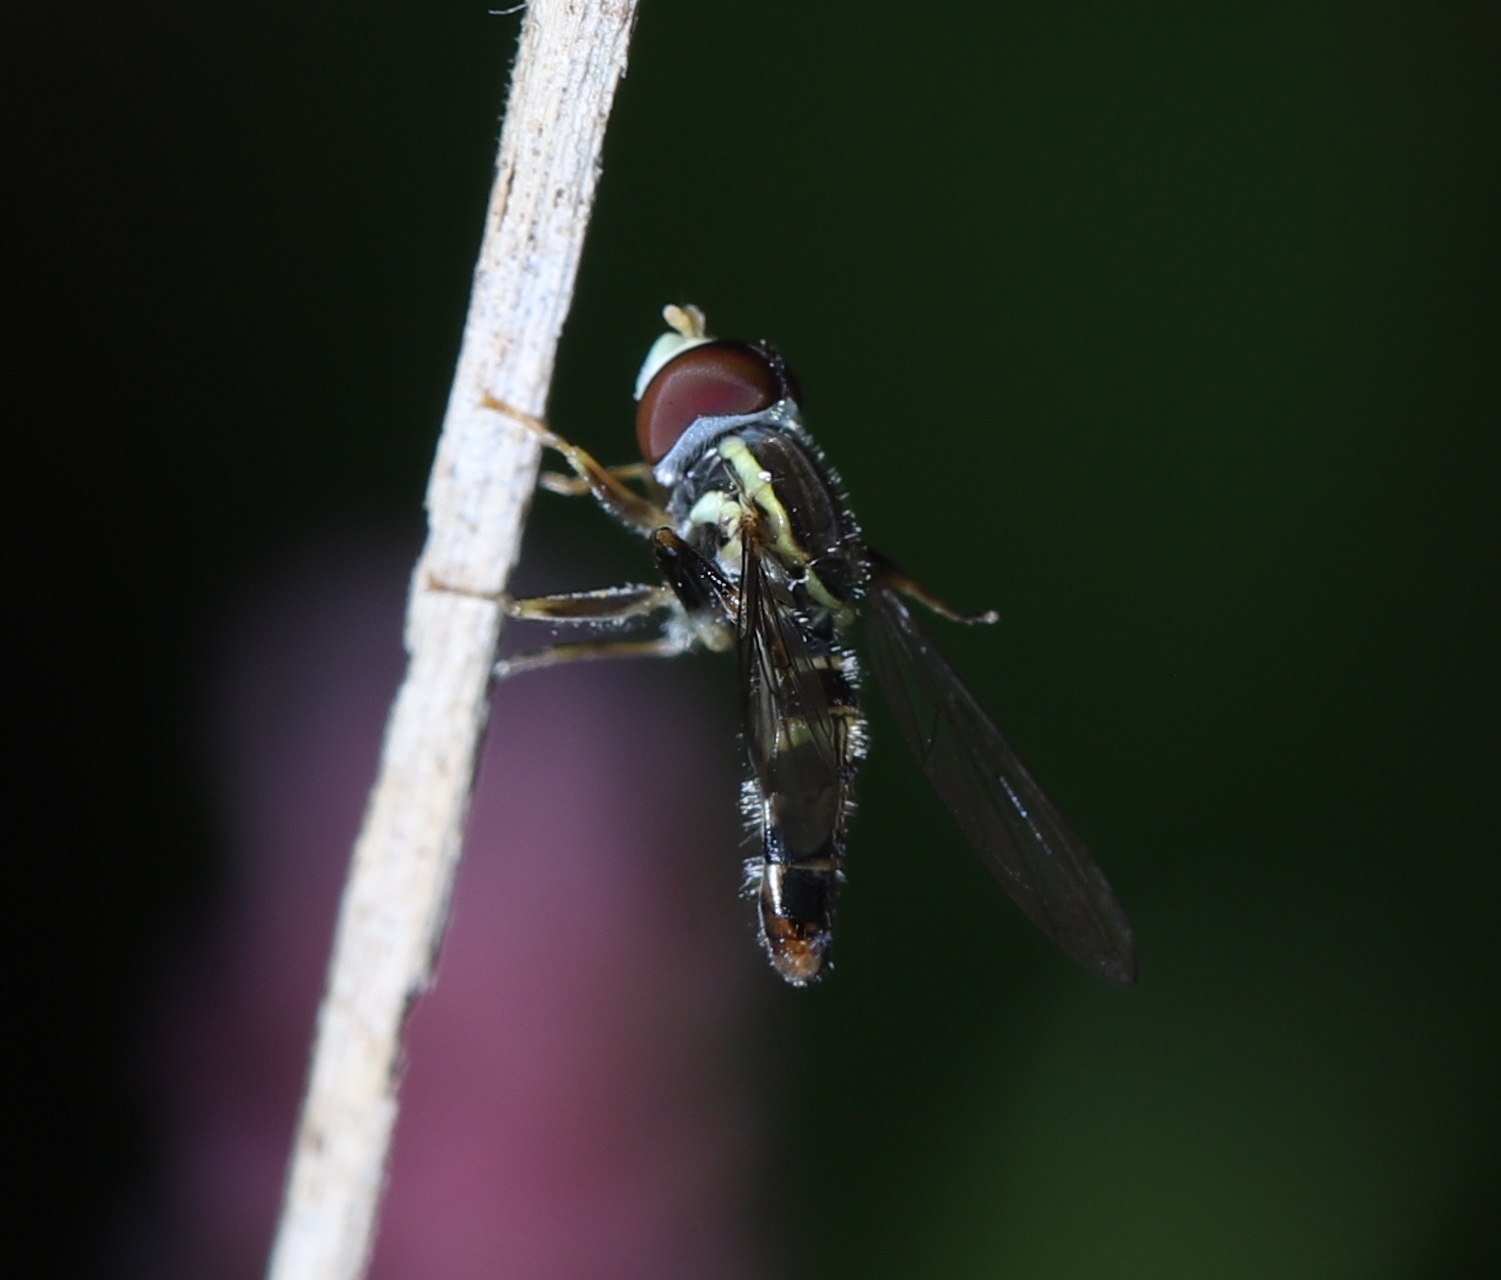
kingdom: Animalia
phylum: Arthropoda
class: Insecta
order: Diptera
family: Syrphidae
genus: Toxomerus
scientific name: Toxomerus geminatus
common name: Eastern calligrapher
